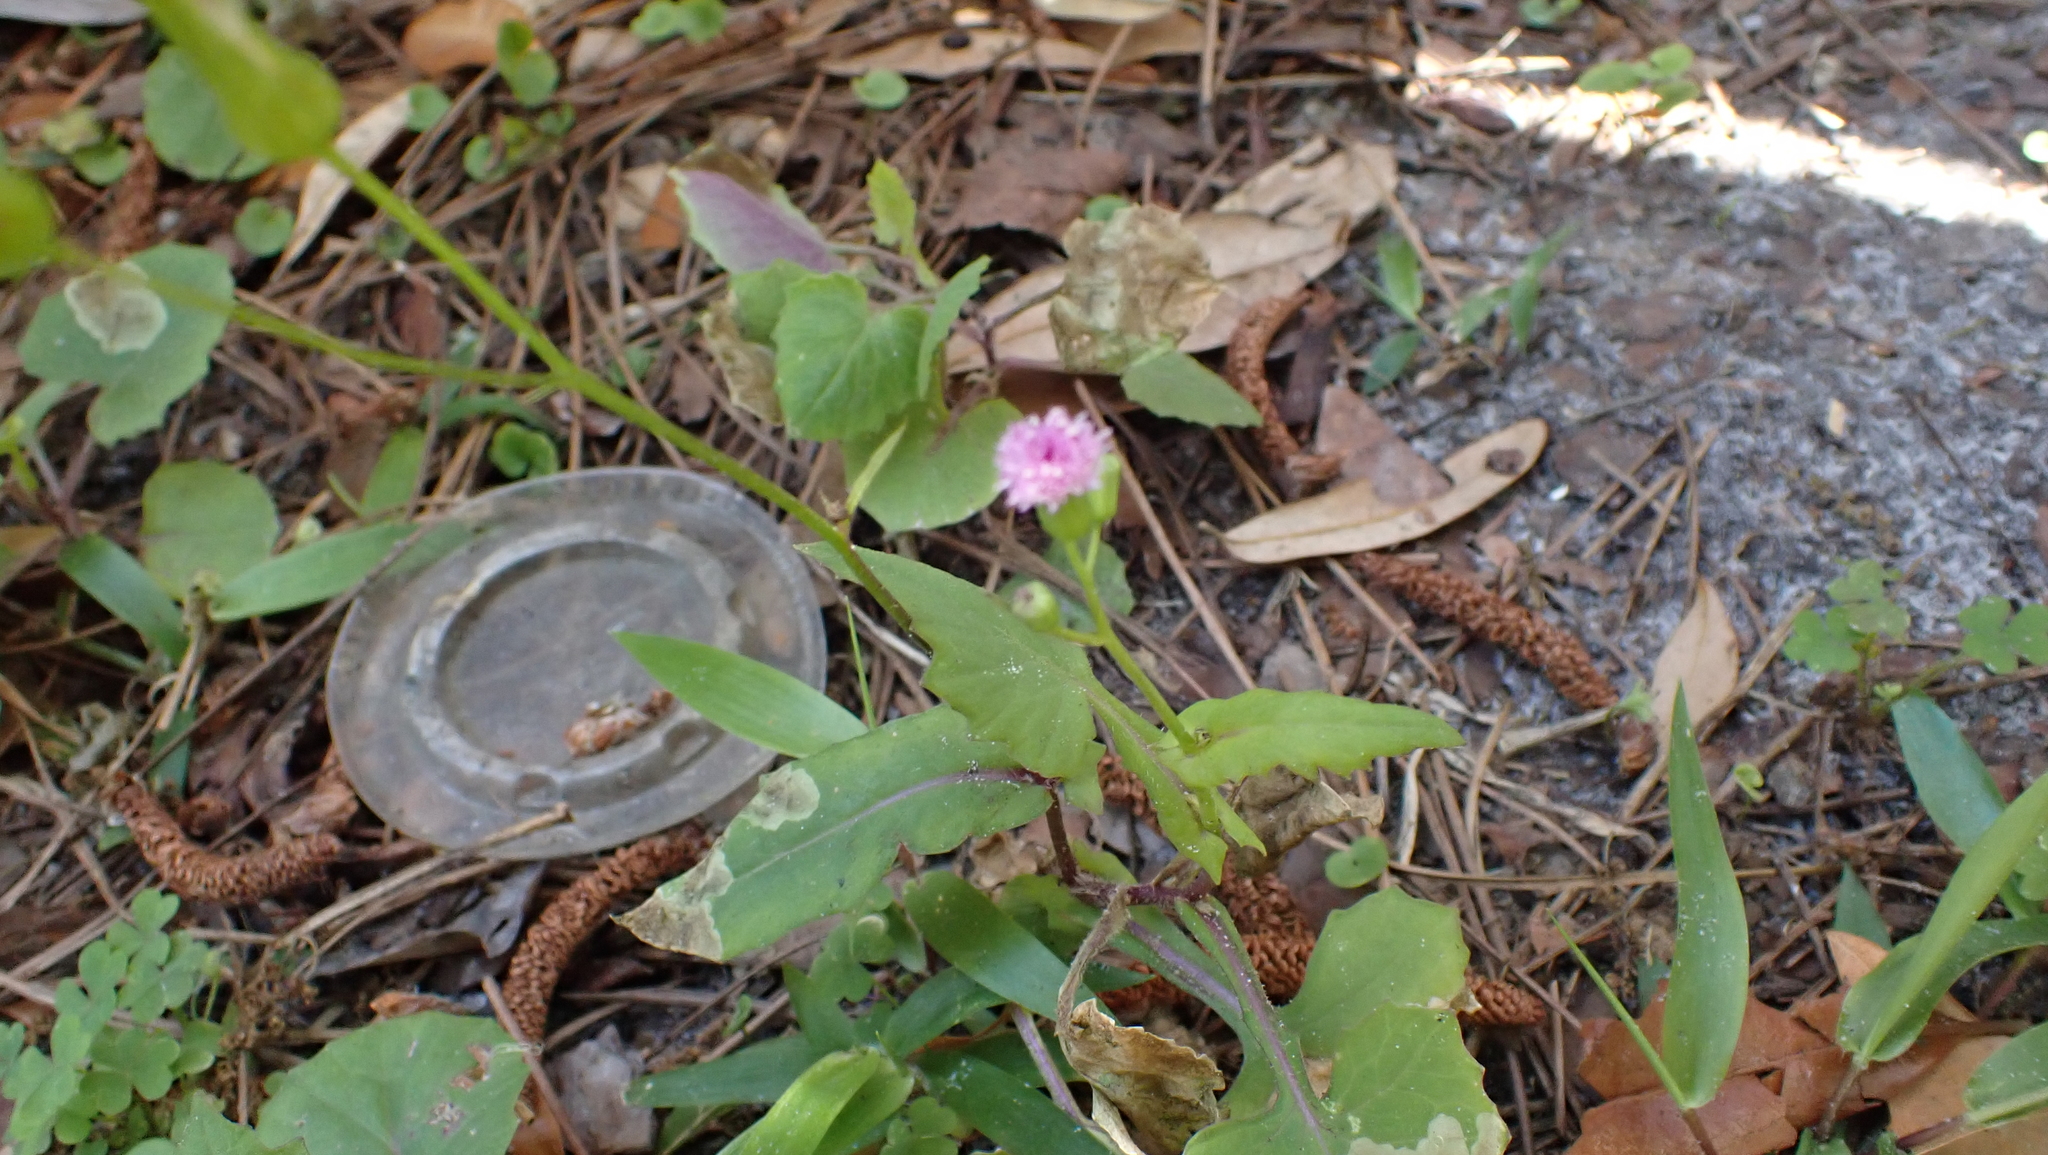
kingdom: Plantae
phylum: Tracheophyta
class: Magnoliopsida
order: Asterales
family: Asteraceae
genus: Emilia
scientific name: Emilia sonchifolia
